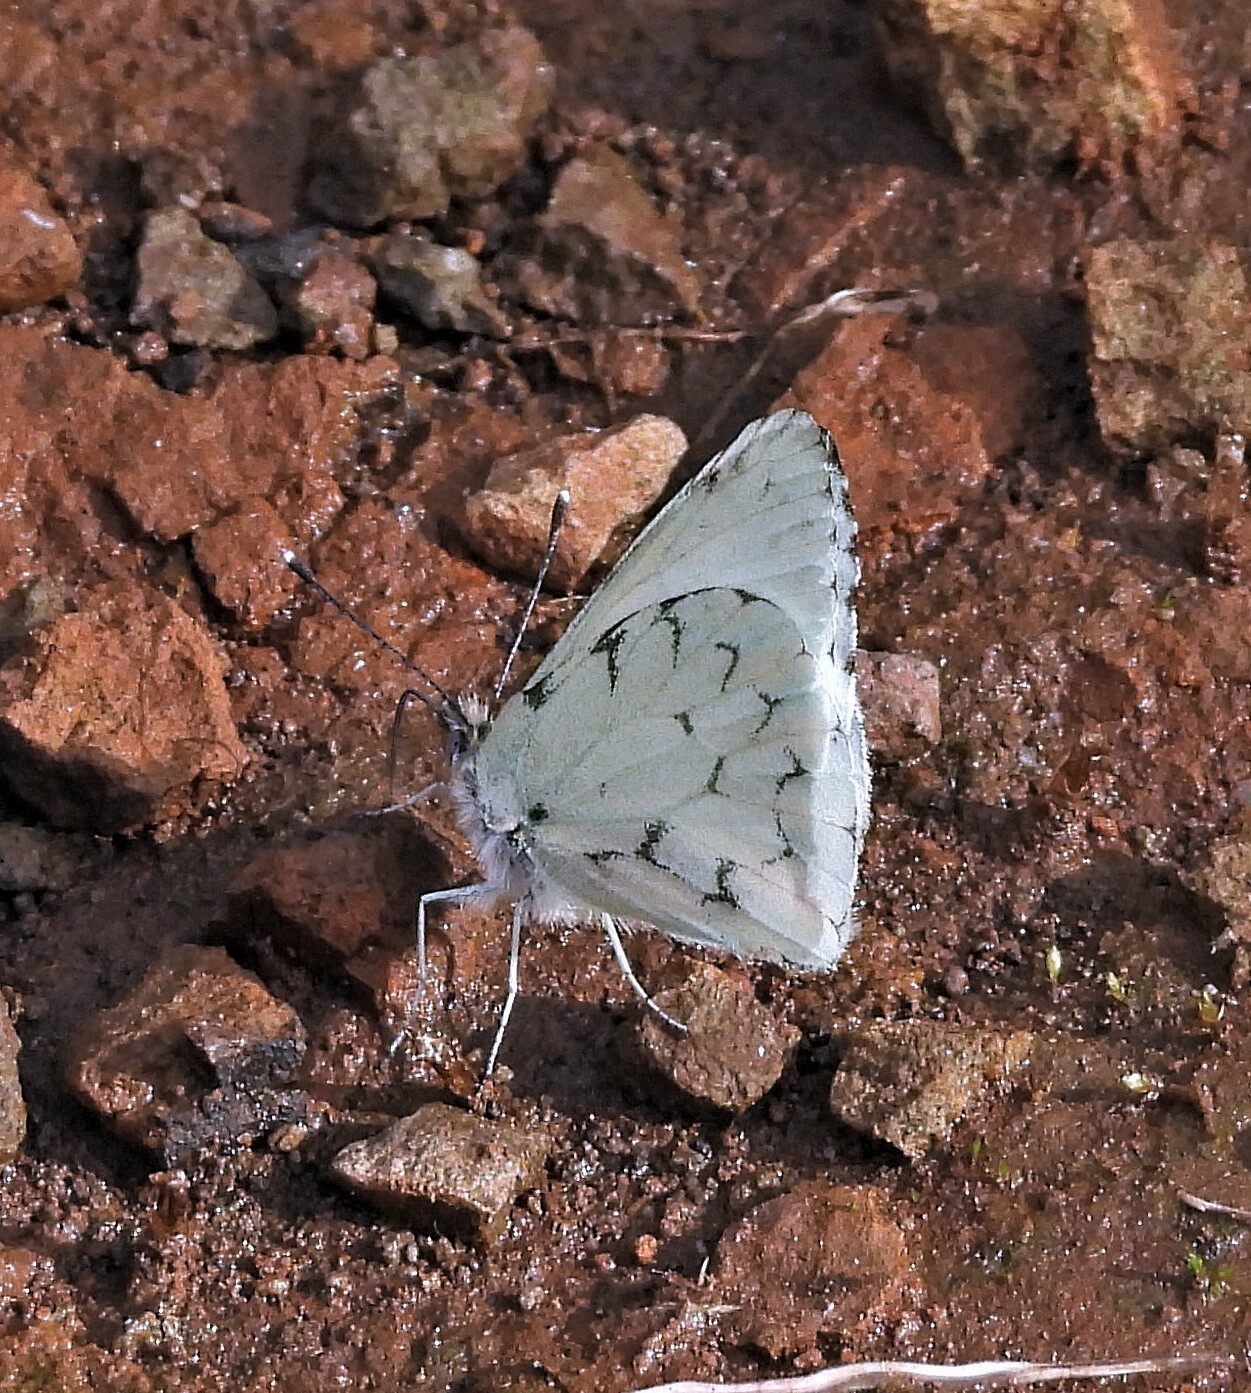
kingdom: Animalia
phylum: Arthropoda
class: Insecta
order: Lepidoptera
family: Pieridae
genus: Hesperocharis
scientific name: Hesperocharis paranensis
